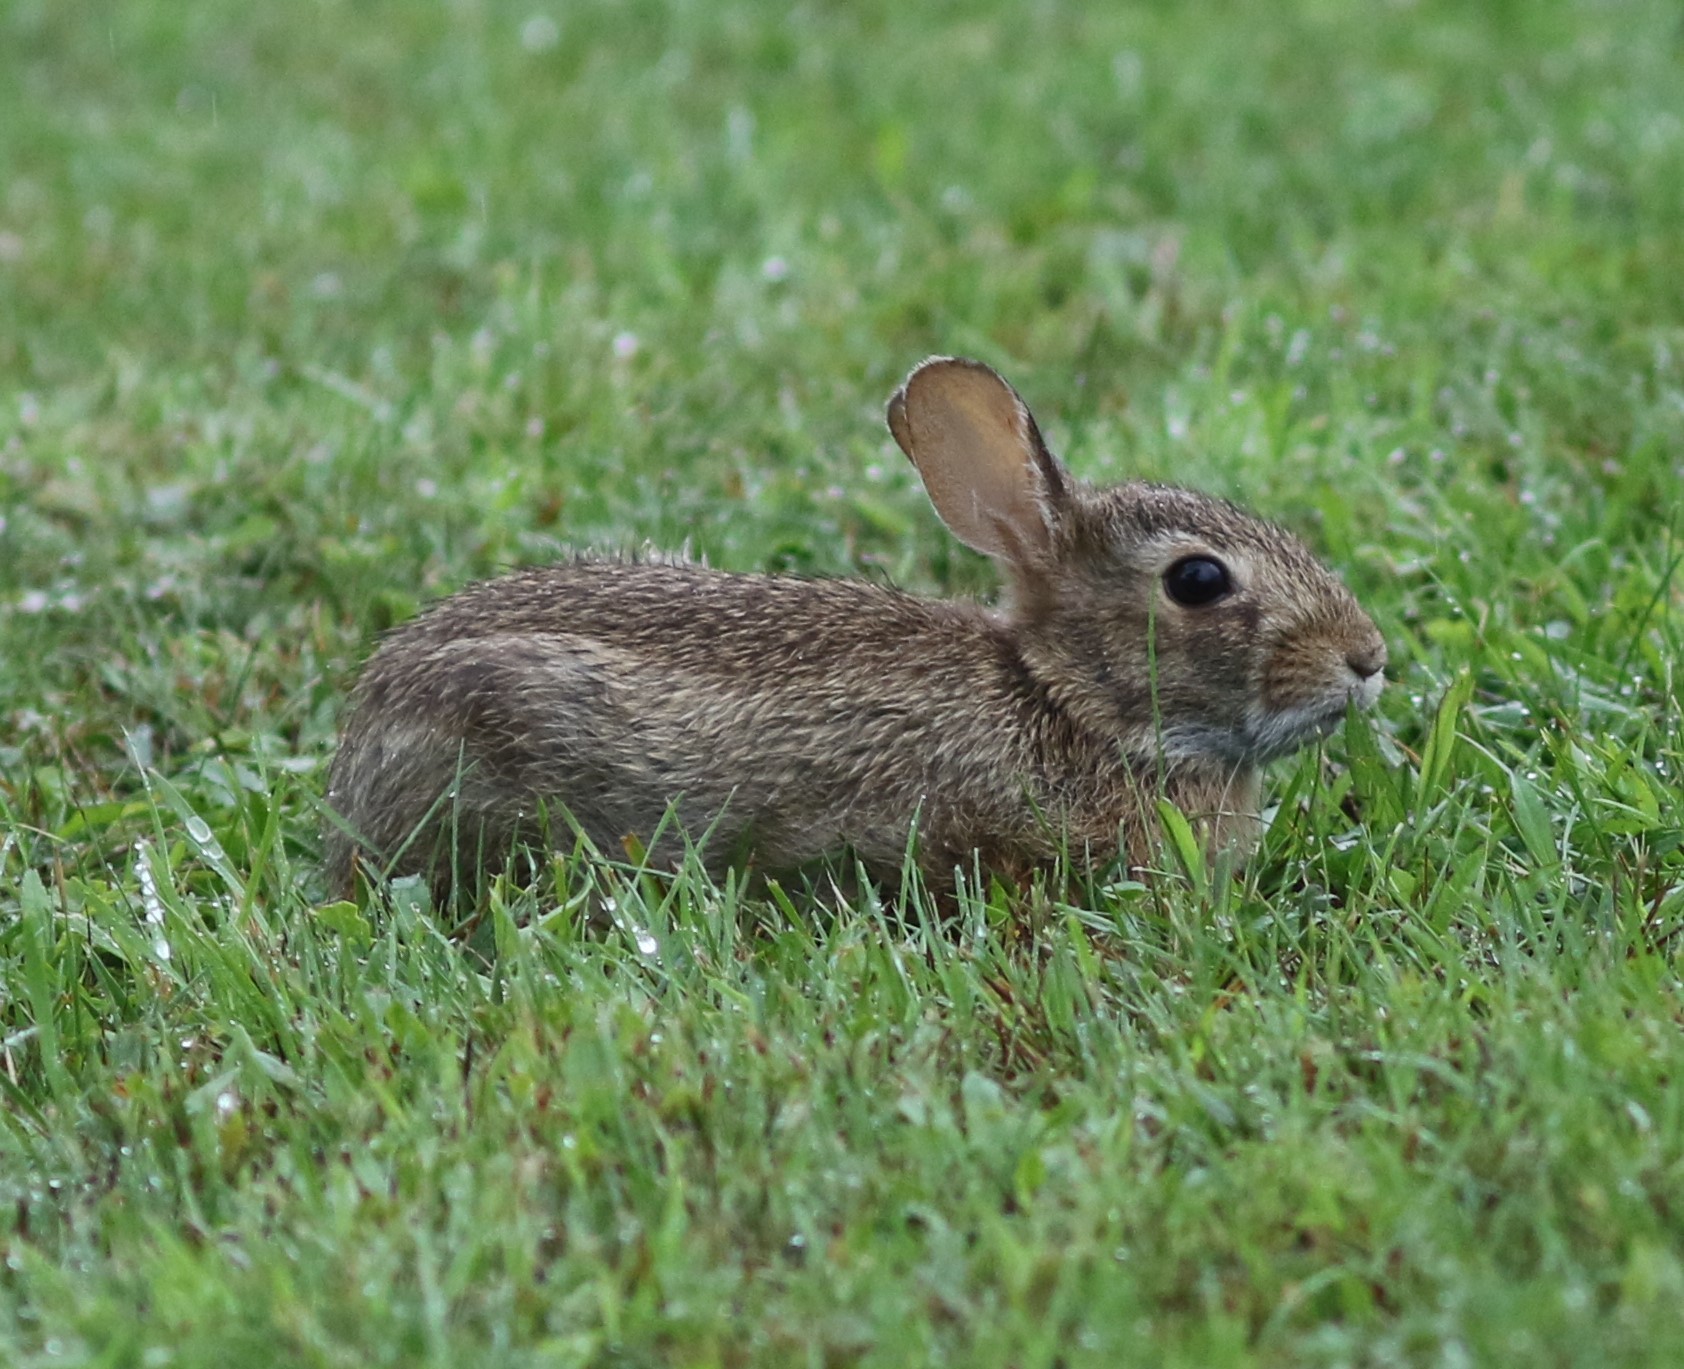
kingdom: Animalia
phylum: Chordata
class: Mammalia
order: Lagomorpha
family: Leporidae
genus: Sylvilagus
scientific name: Sylvilagus floridanus
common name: Eastern cottontail
